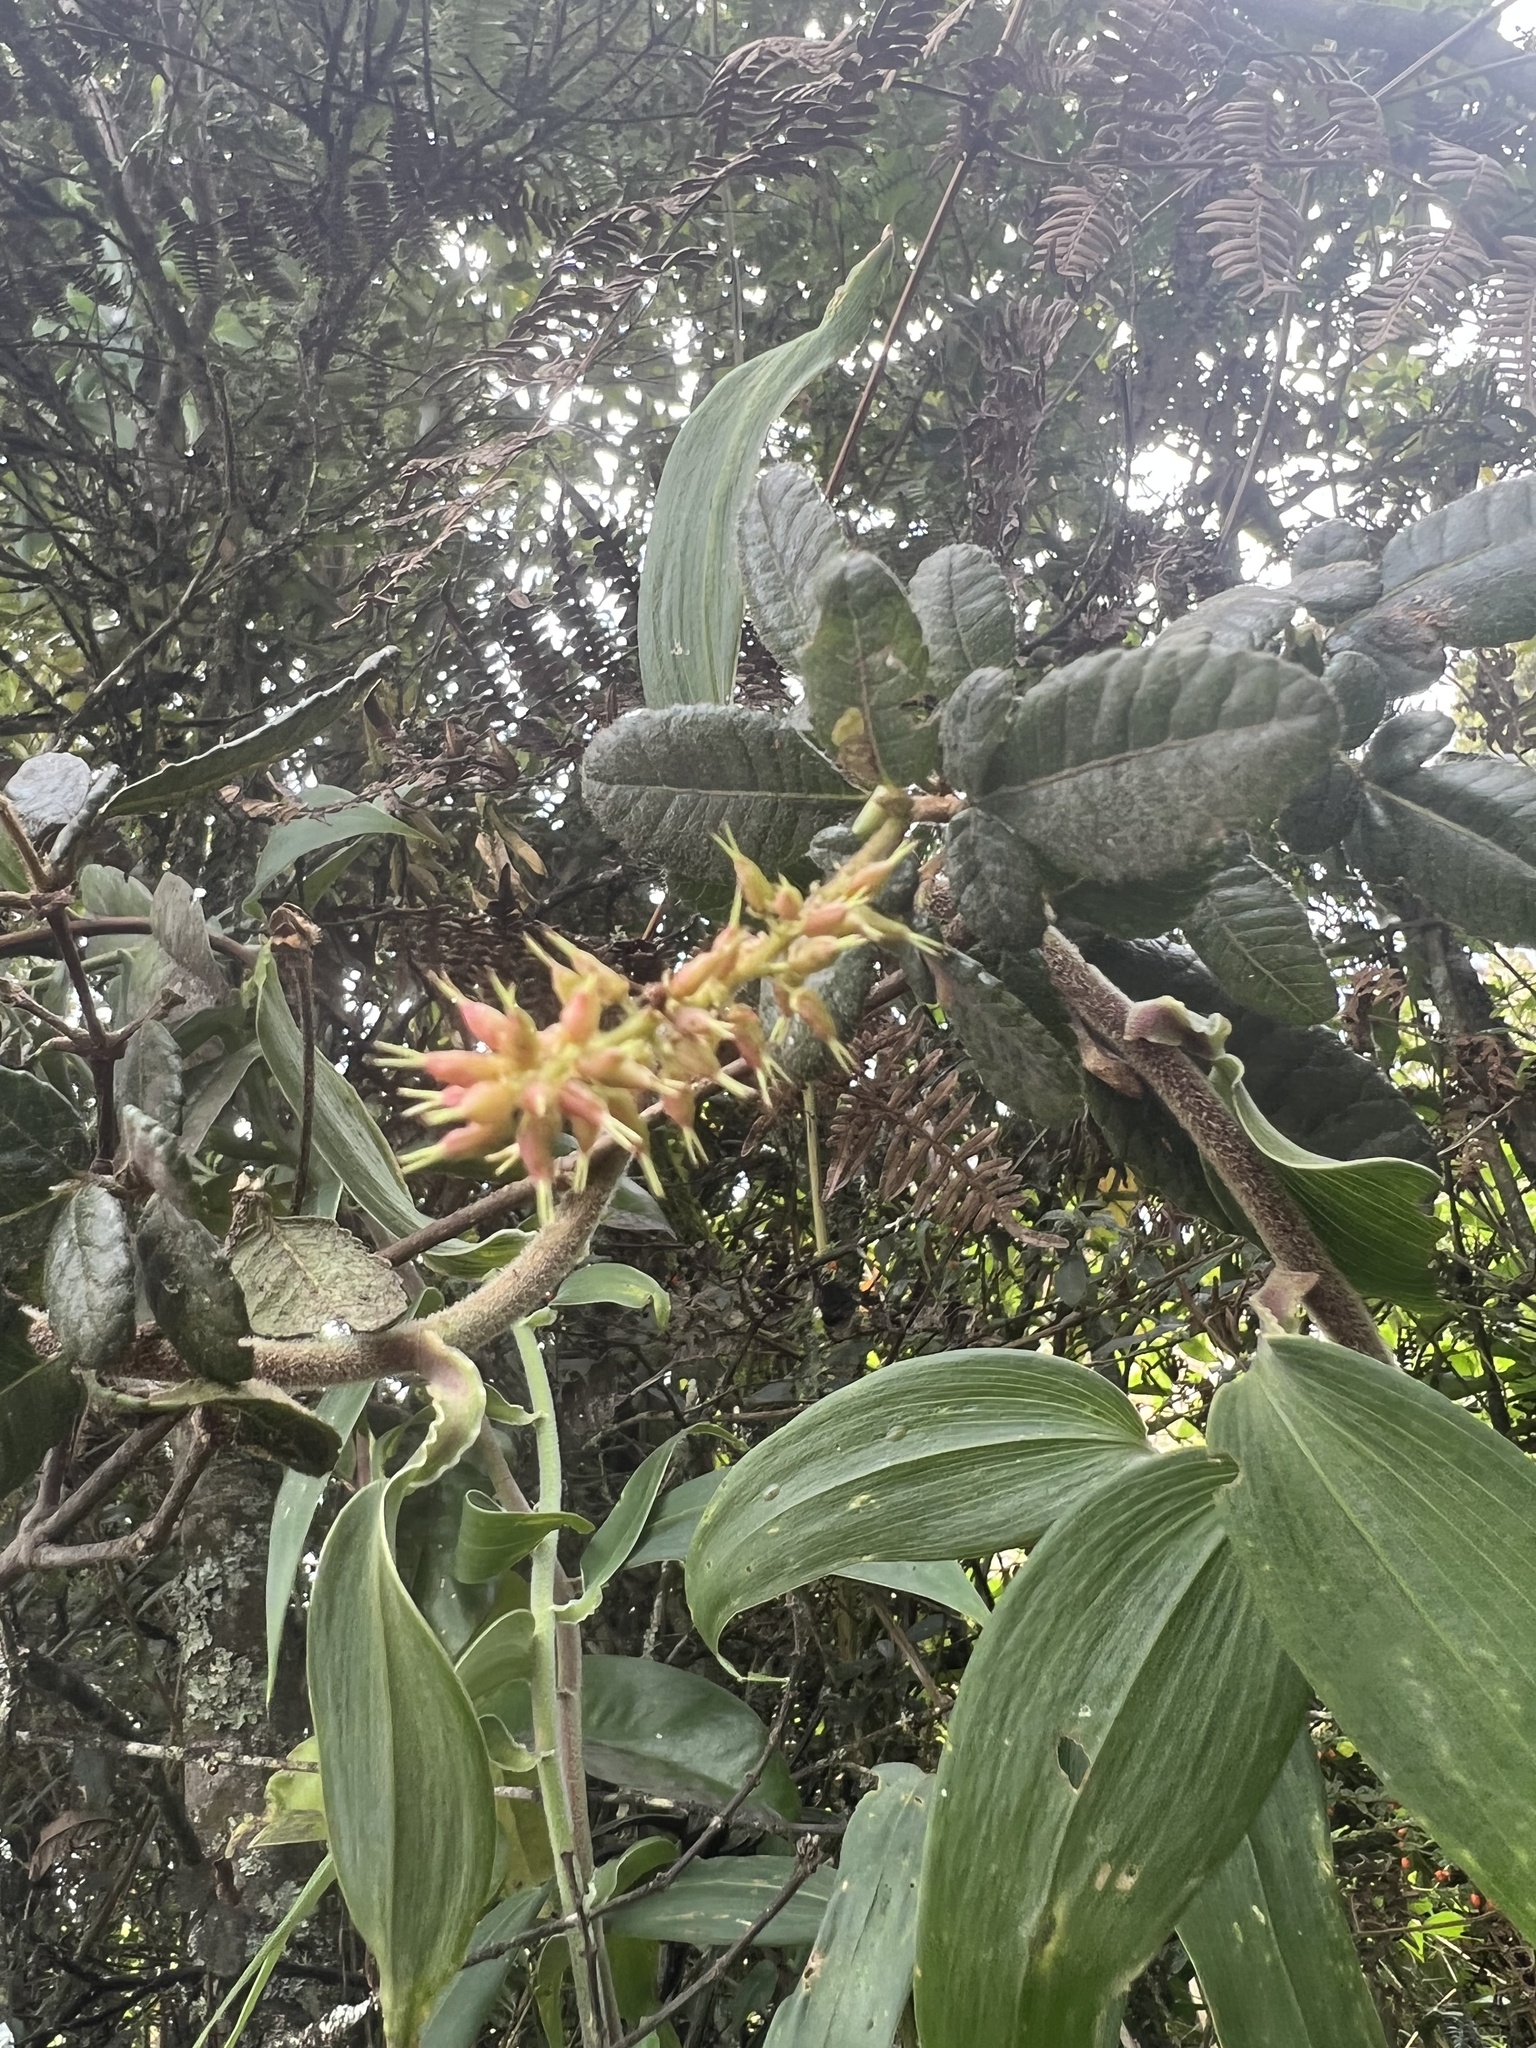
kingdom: Plantae
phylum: Tracheophyta
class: Magnoliopsida
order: Oxalidales
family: Cunoniaceae
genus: Weinmannia
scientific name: Weinmannia auriculata
